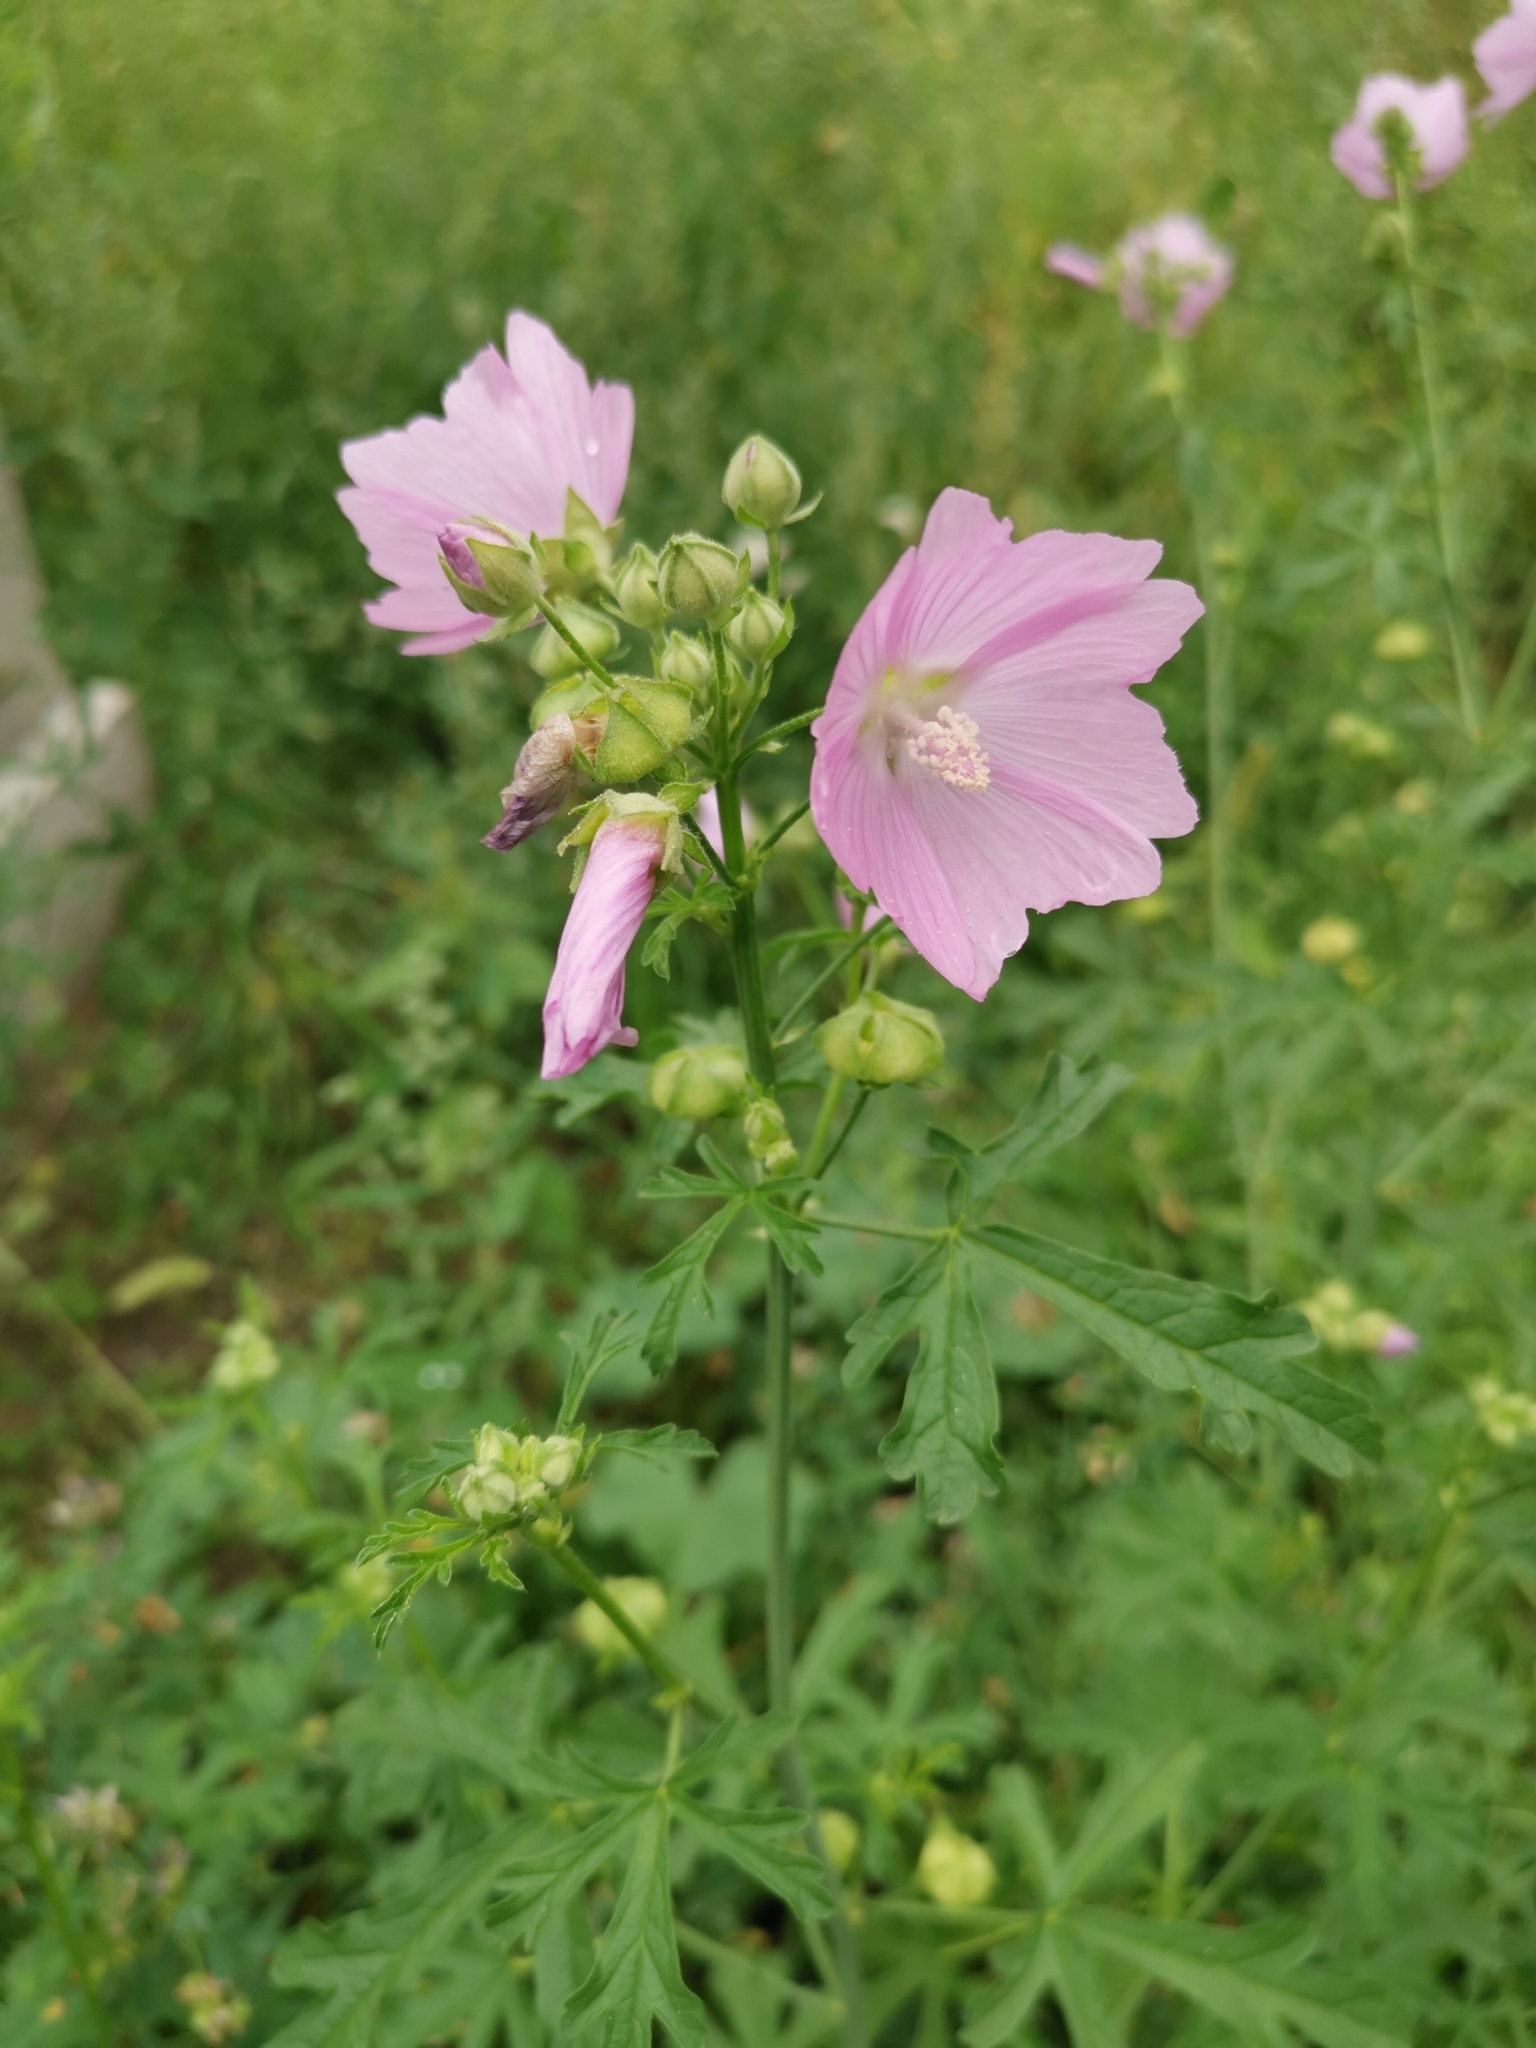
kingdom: Plantae
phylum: Tracheophyta
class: Magnoliopsida
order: Malvales
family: Malvaceae
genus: Malva
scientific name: Malva alcea
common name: Greater musk-mallow
